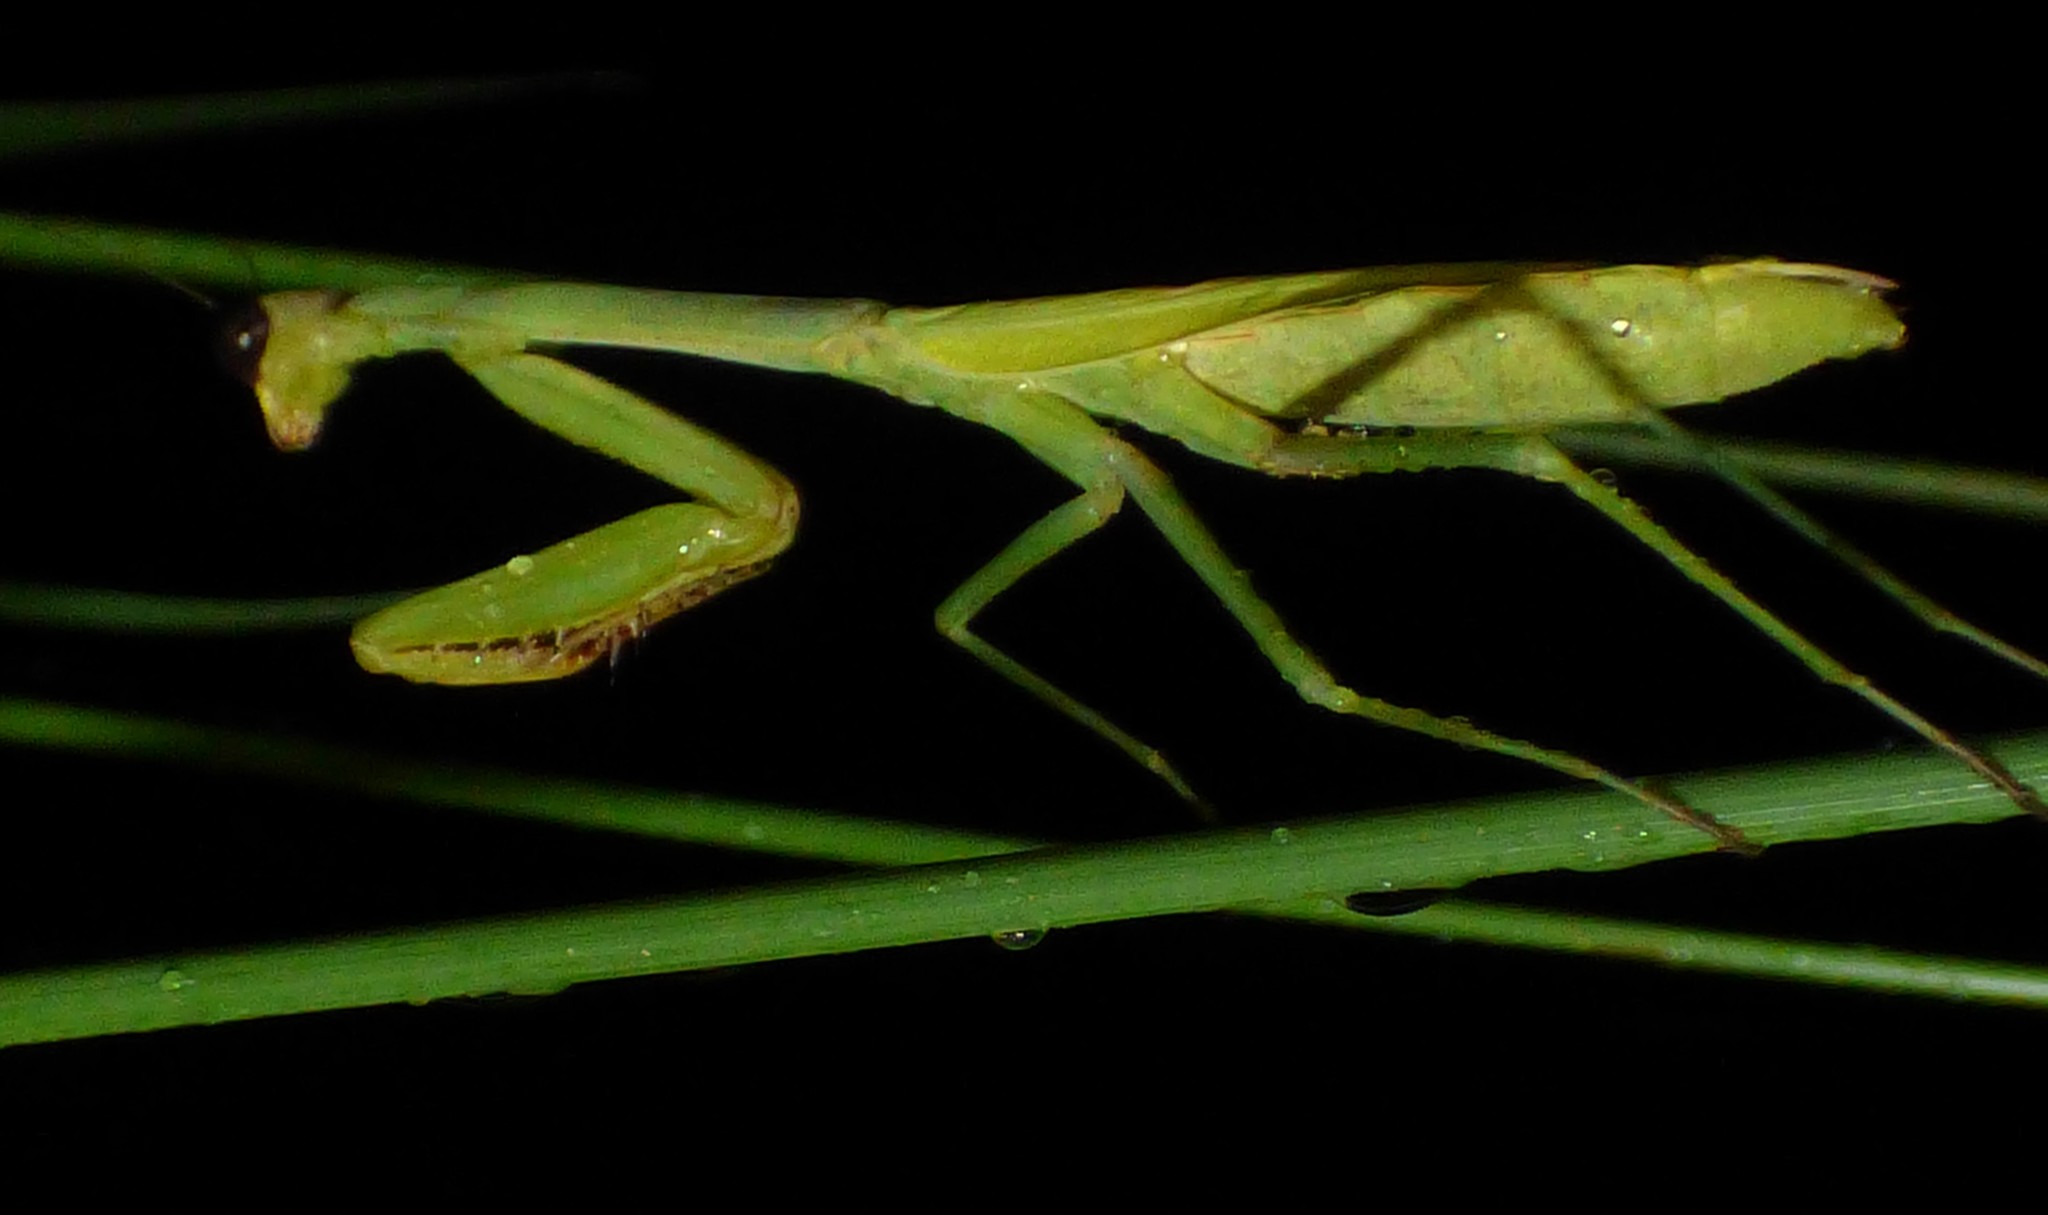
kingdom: Animalia
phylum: Arthropoda
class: Insecta
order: Mantodea
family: Mantidae
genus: Stagmomantis
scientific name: Stagmomantis carolina
